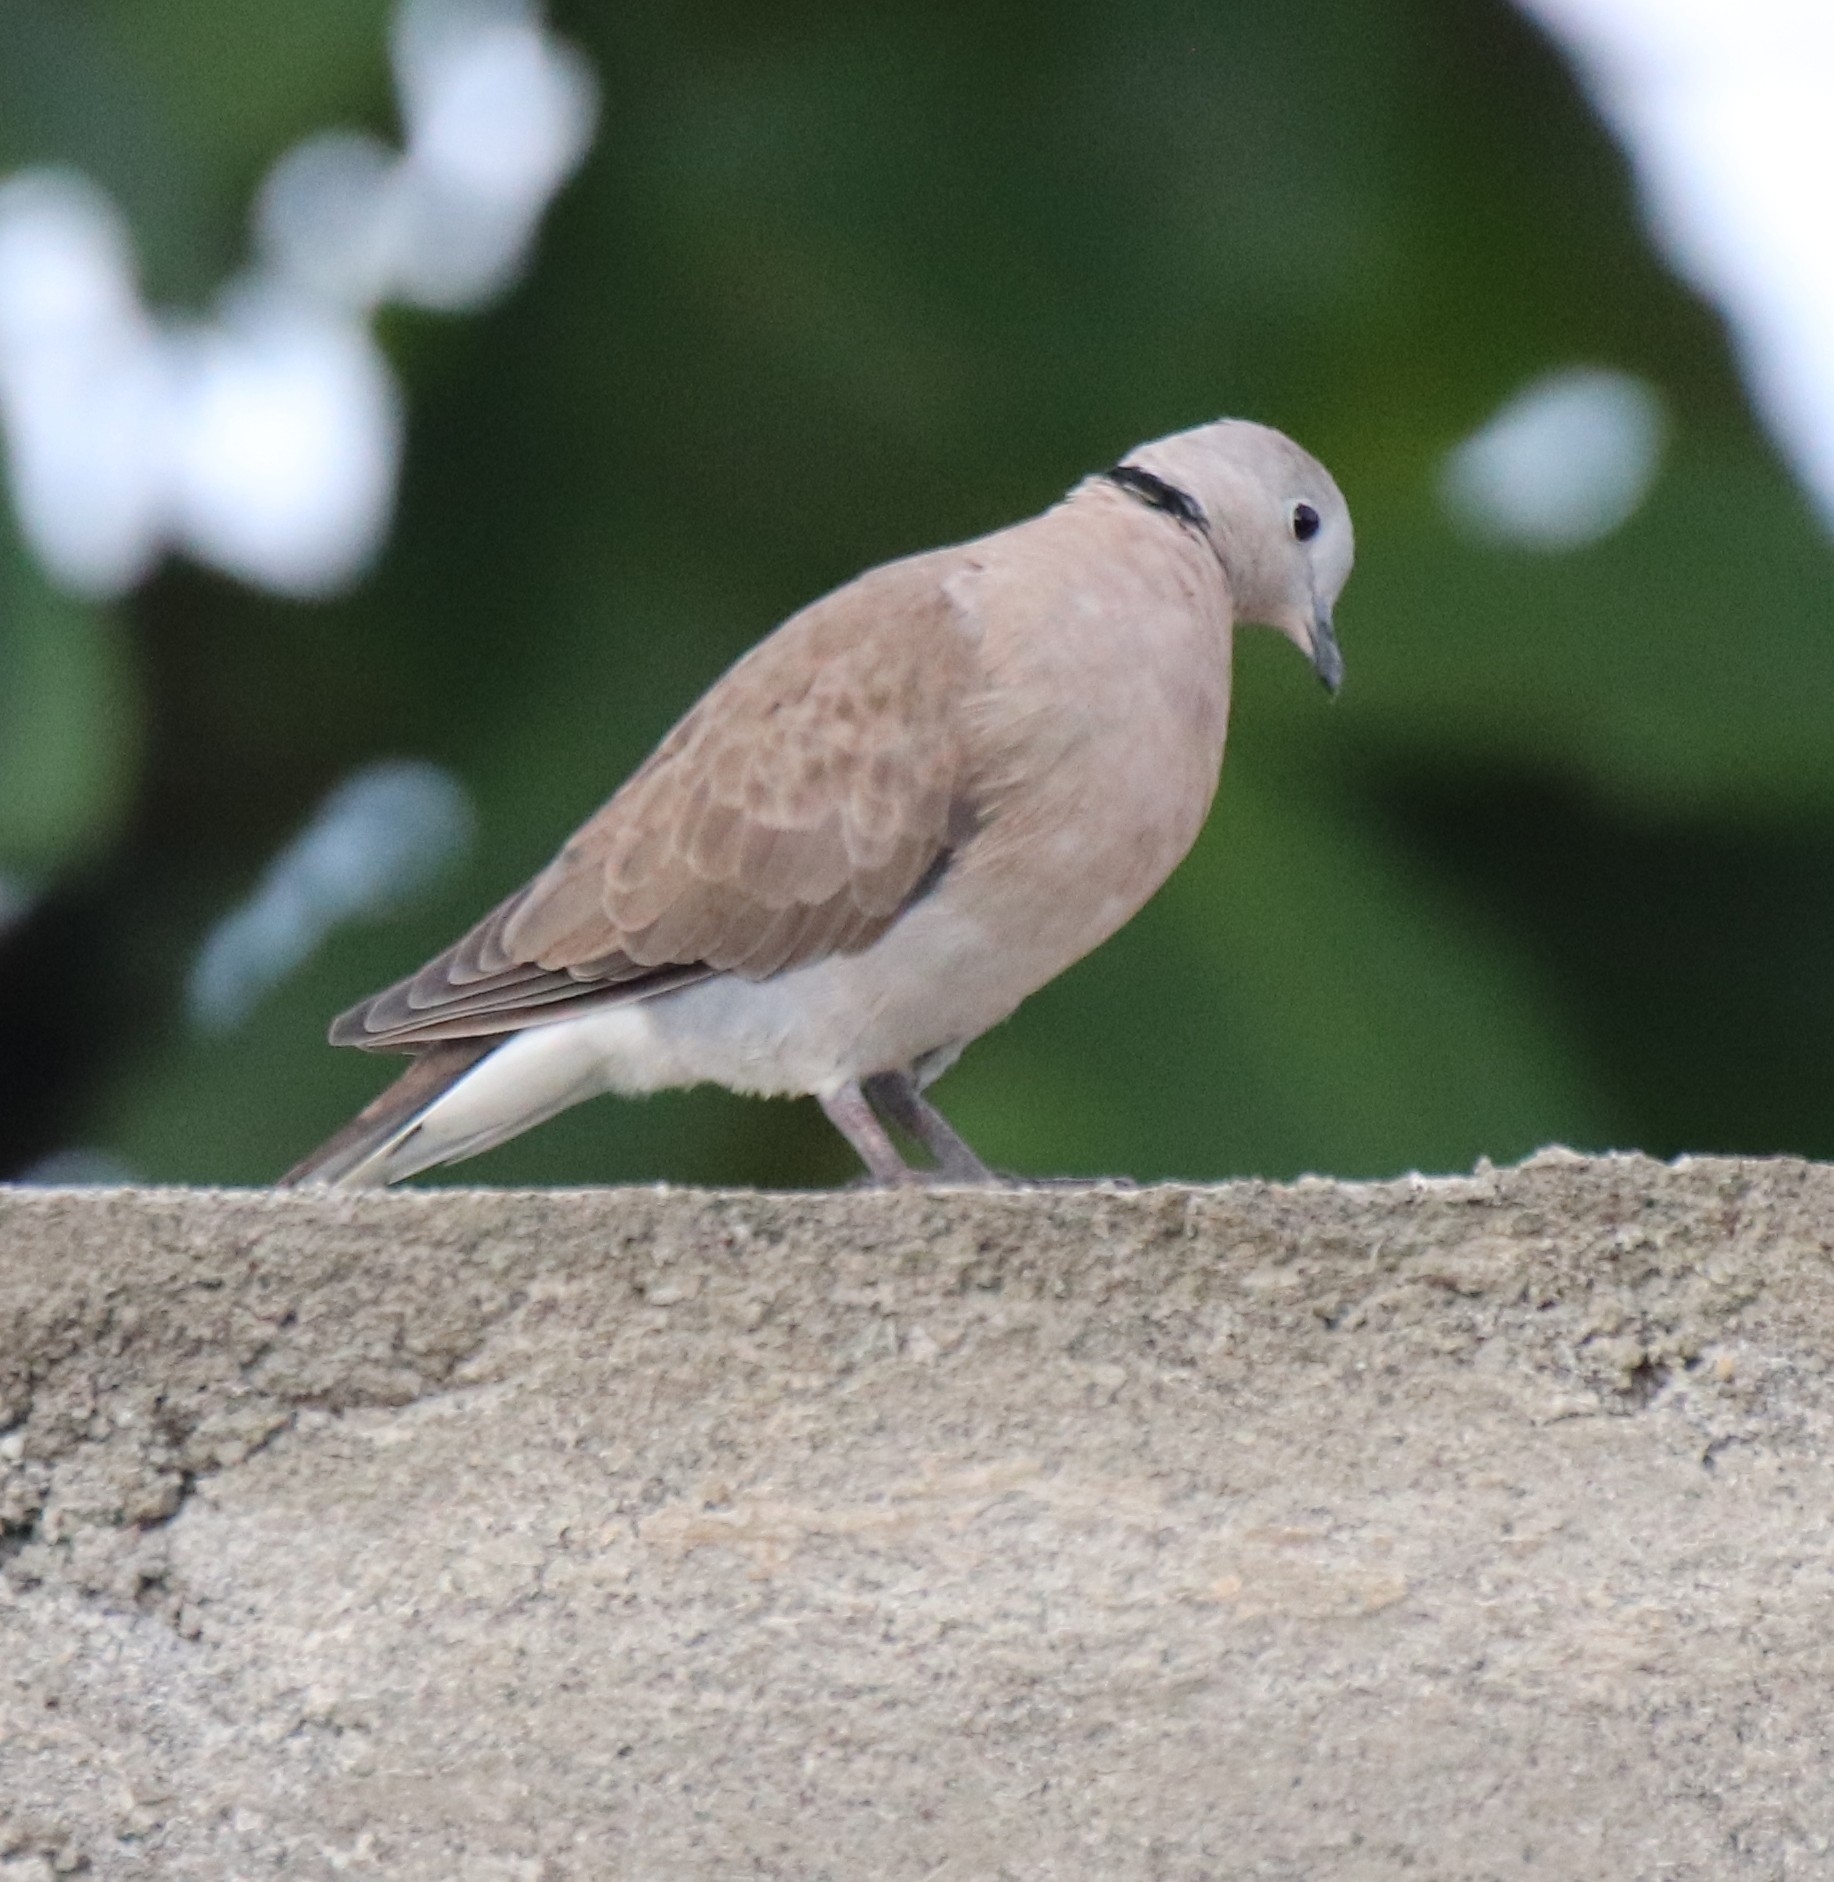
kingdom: Animalia
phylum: Chordata
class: Aves
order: Columbiformes
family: Columbidae
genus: Streptopelia
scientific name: Streptopelia tranquebarica
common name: Red turtle dove
